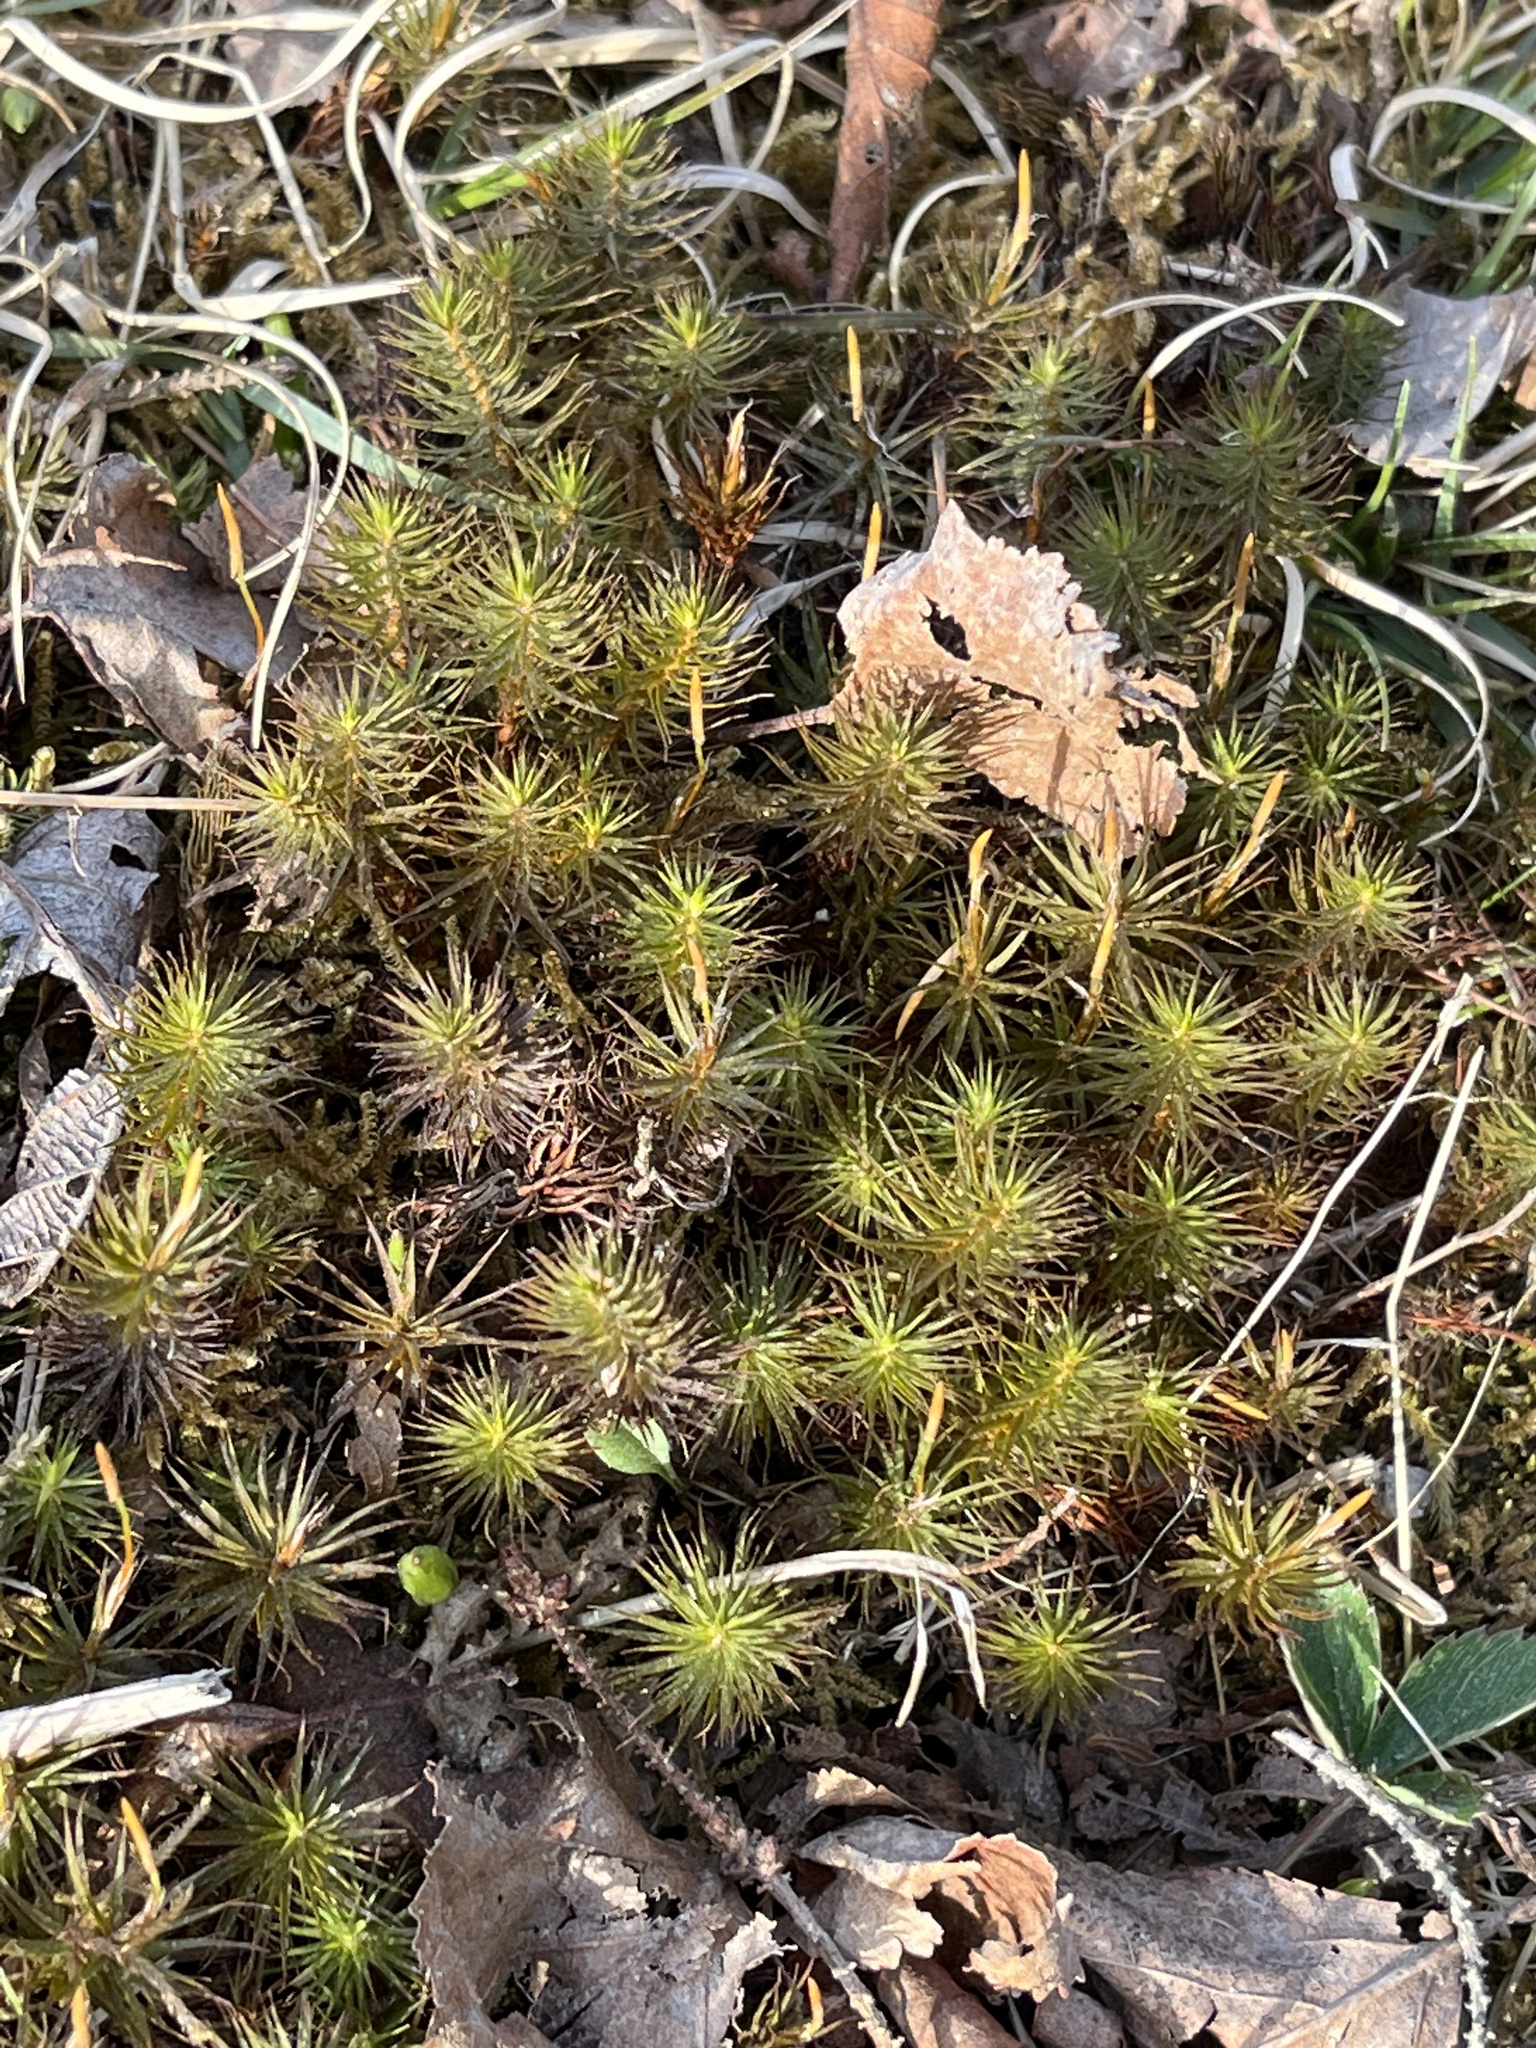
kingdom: Plantae
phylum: Bryophyta
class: Polytrichopsida
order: Polytrichales
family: Polytrichaceae
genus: Polytrichum
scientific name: Polytrichum commune
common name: Common haircap
